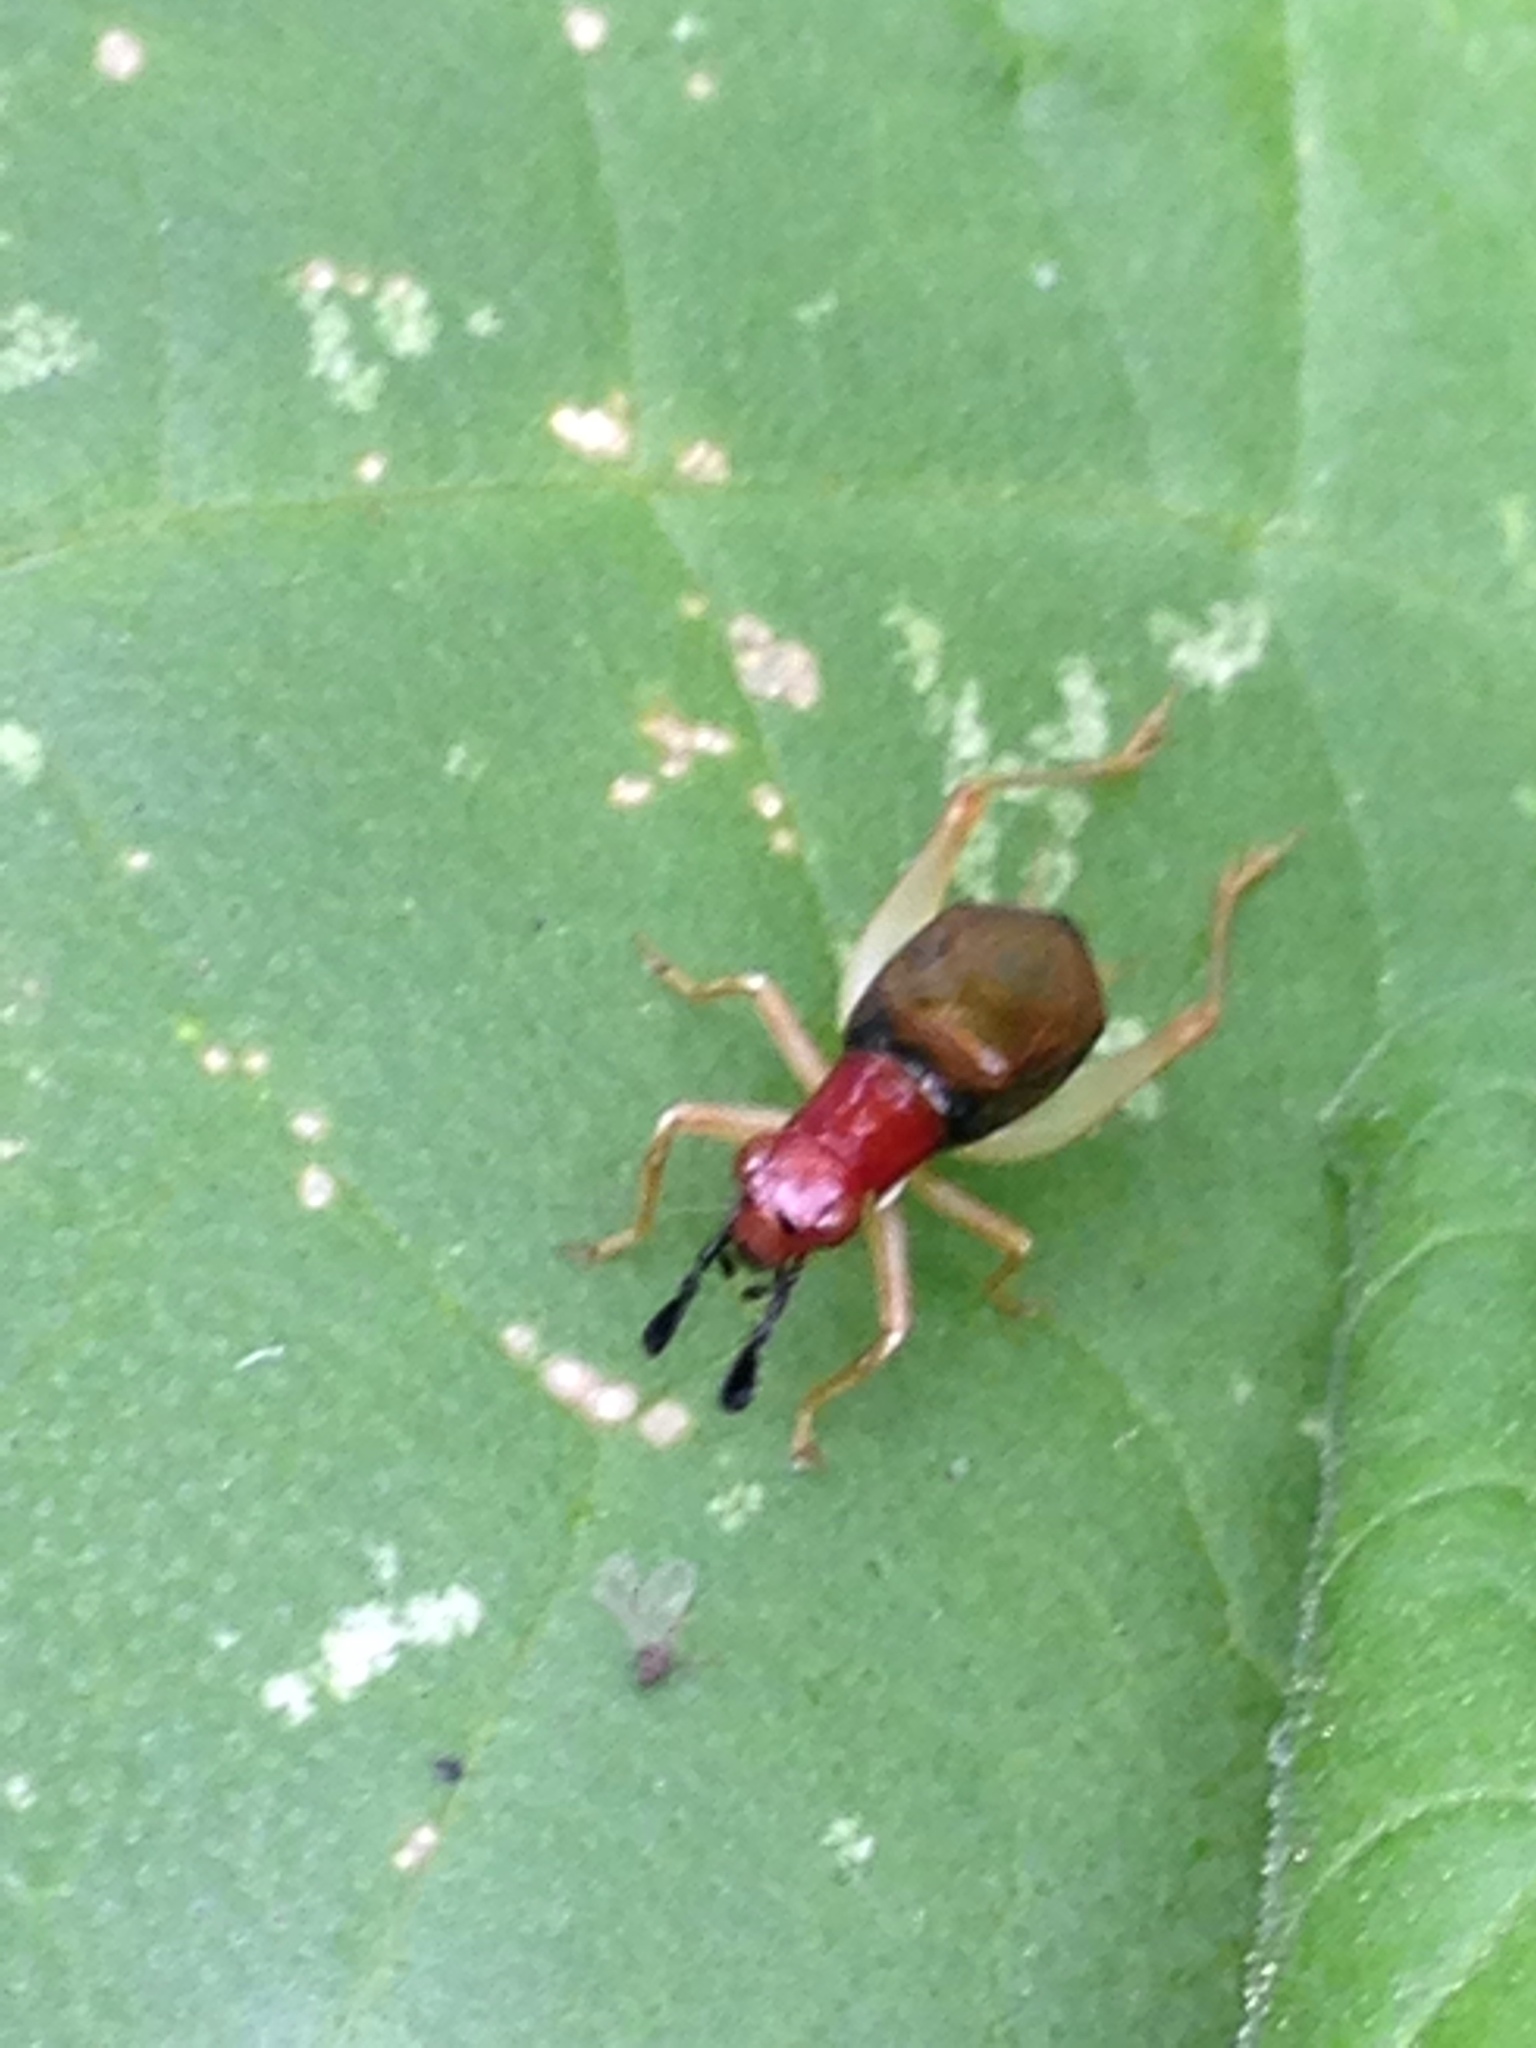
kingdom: Animalia
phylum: Arthropoda
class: Insecta
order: Orthoptera
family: Trigonidiidae
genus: Phyllopalpus
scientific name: Phyllopalpus pulchellus
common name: Handsome trig
